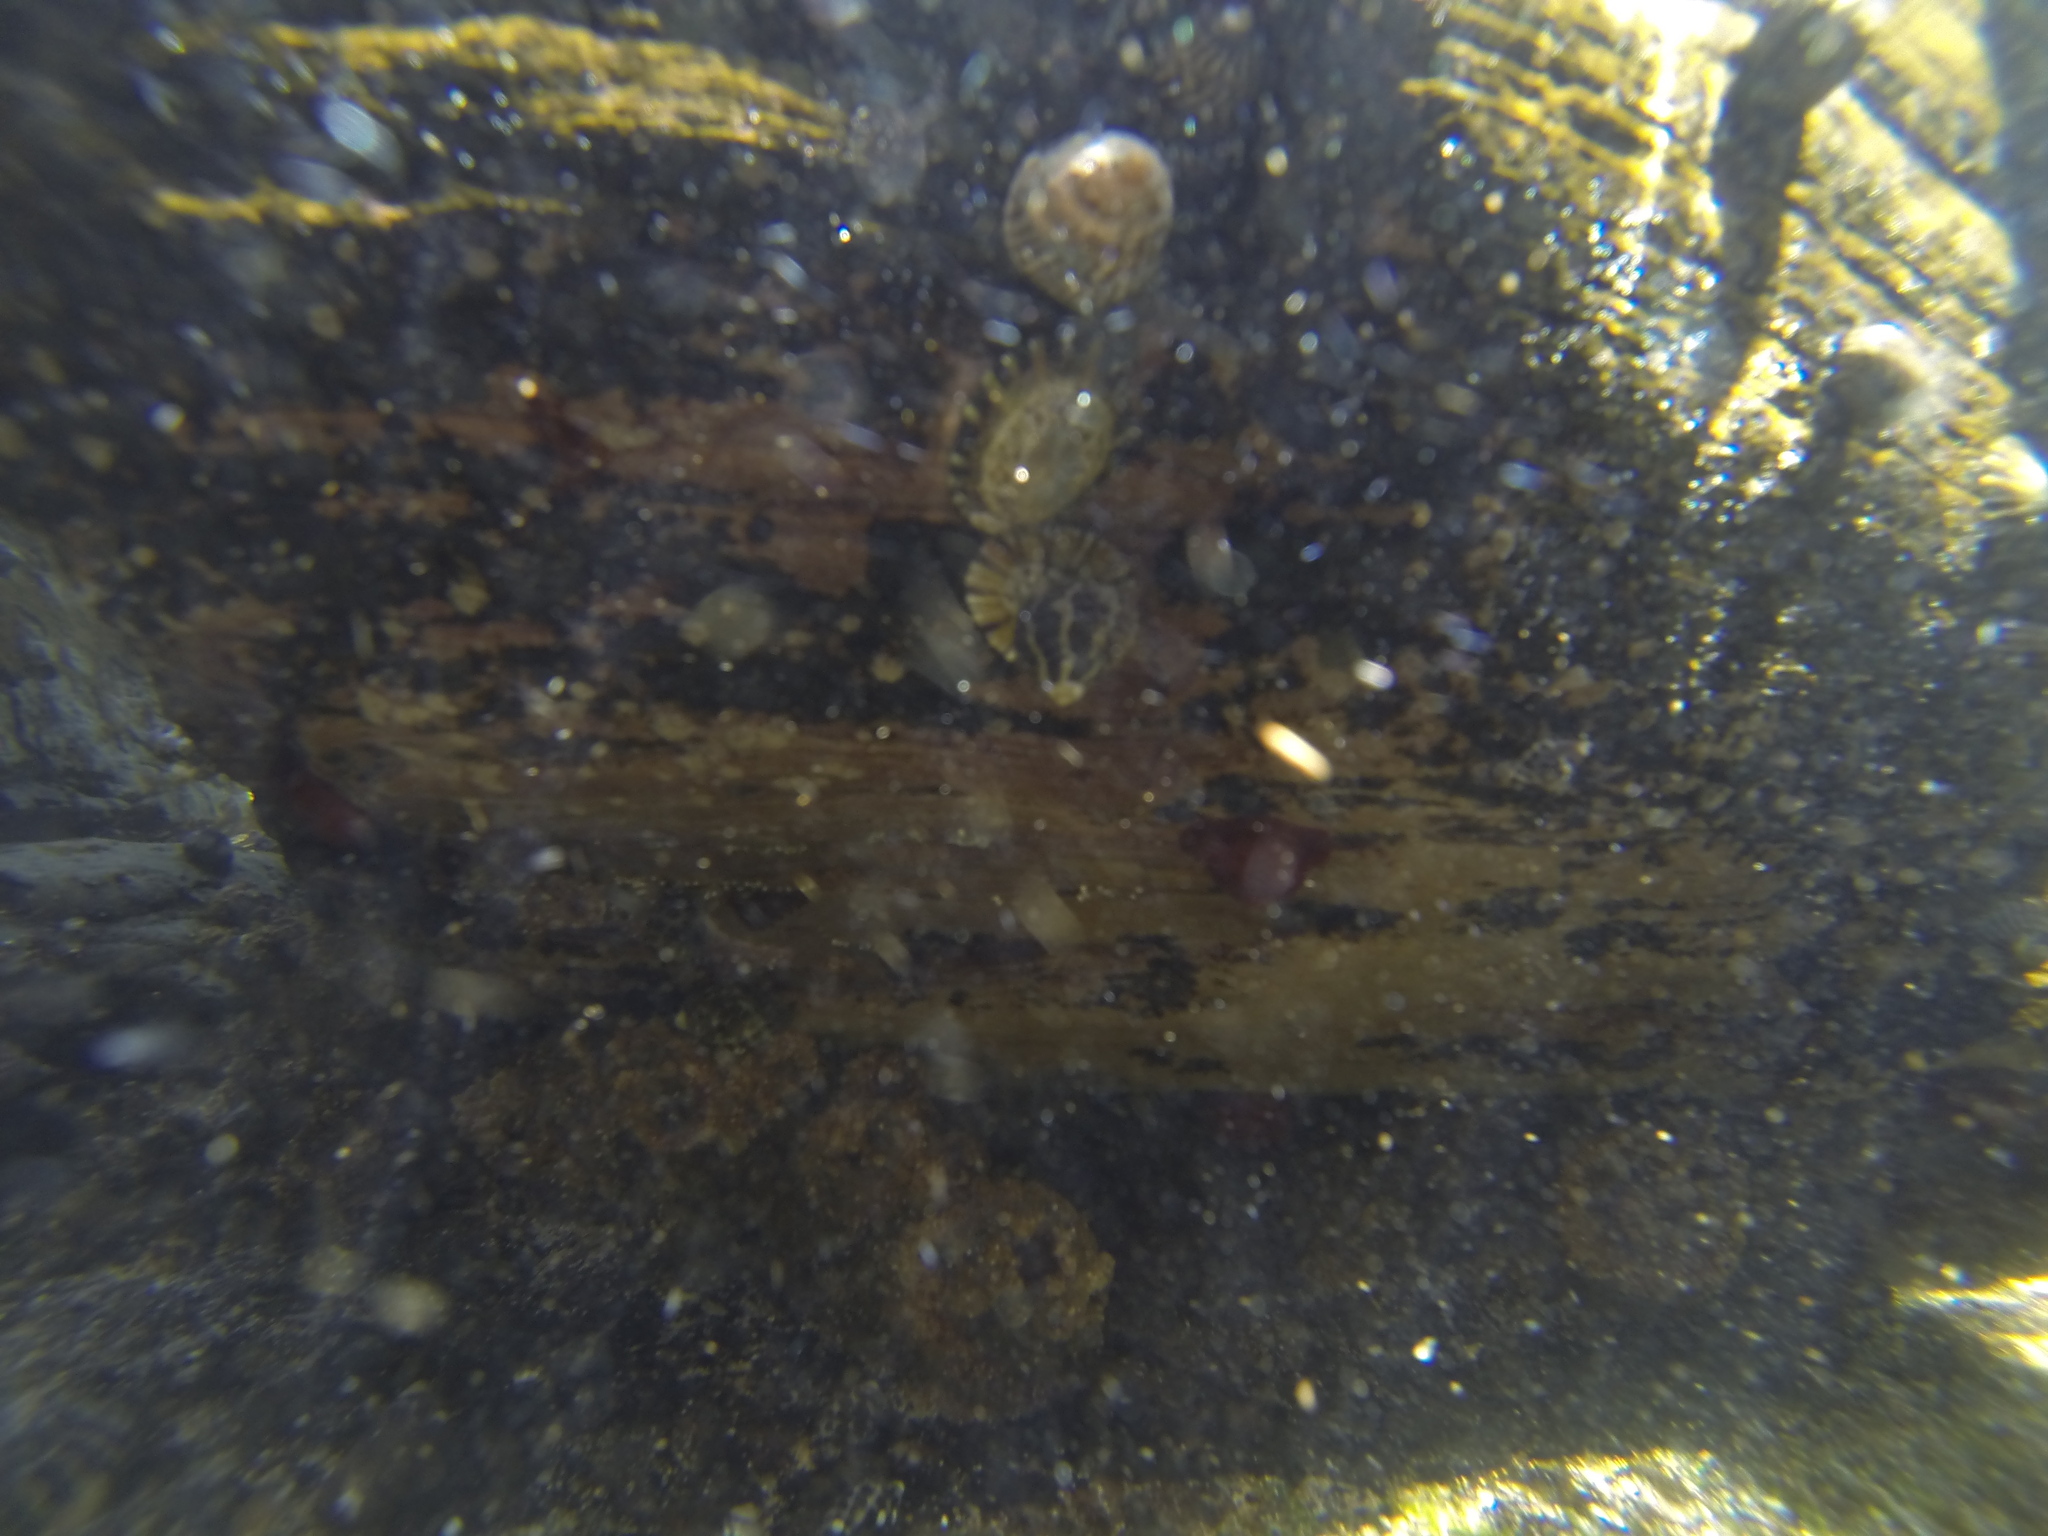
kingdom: Animalia
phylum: Mollusca
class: Gastropoda
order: Trochida
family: Trochidae
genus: Austrocochlea
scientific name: Austrocochlea porcata
